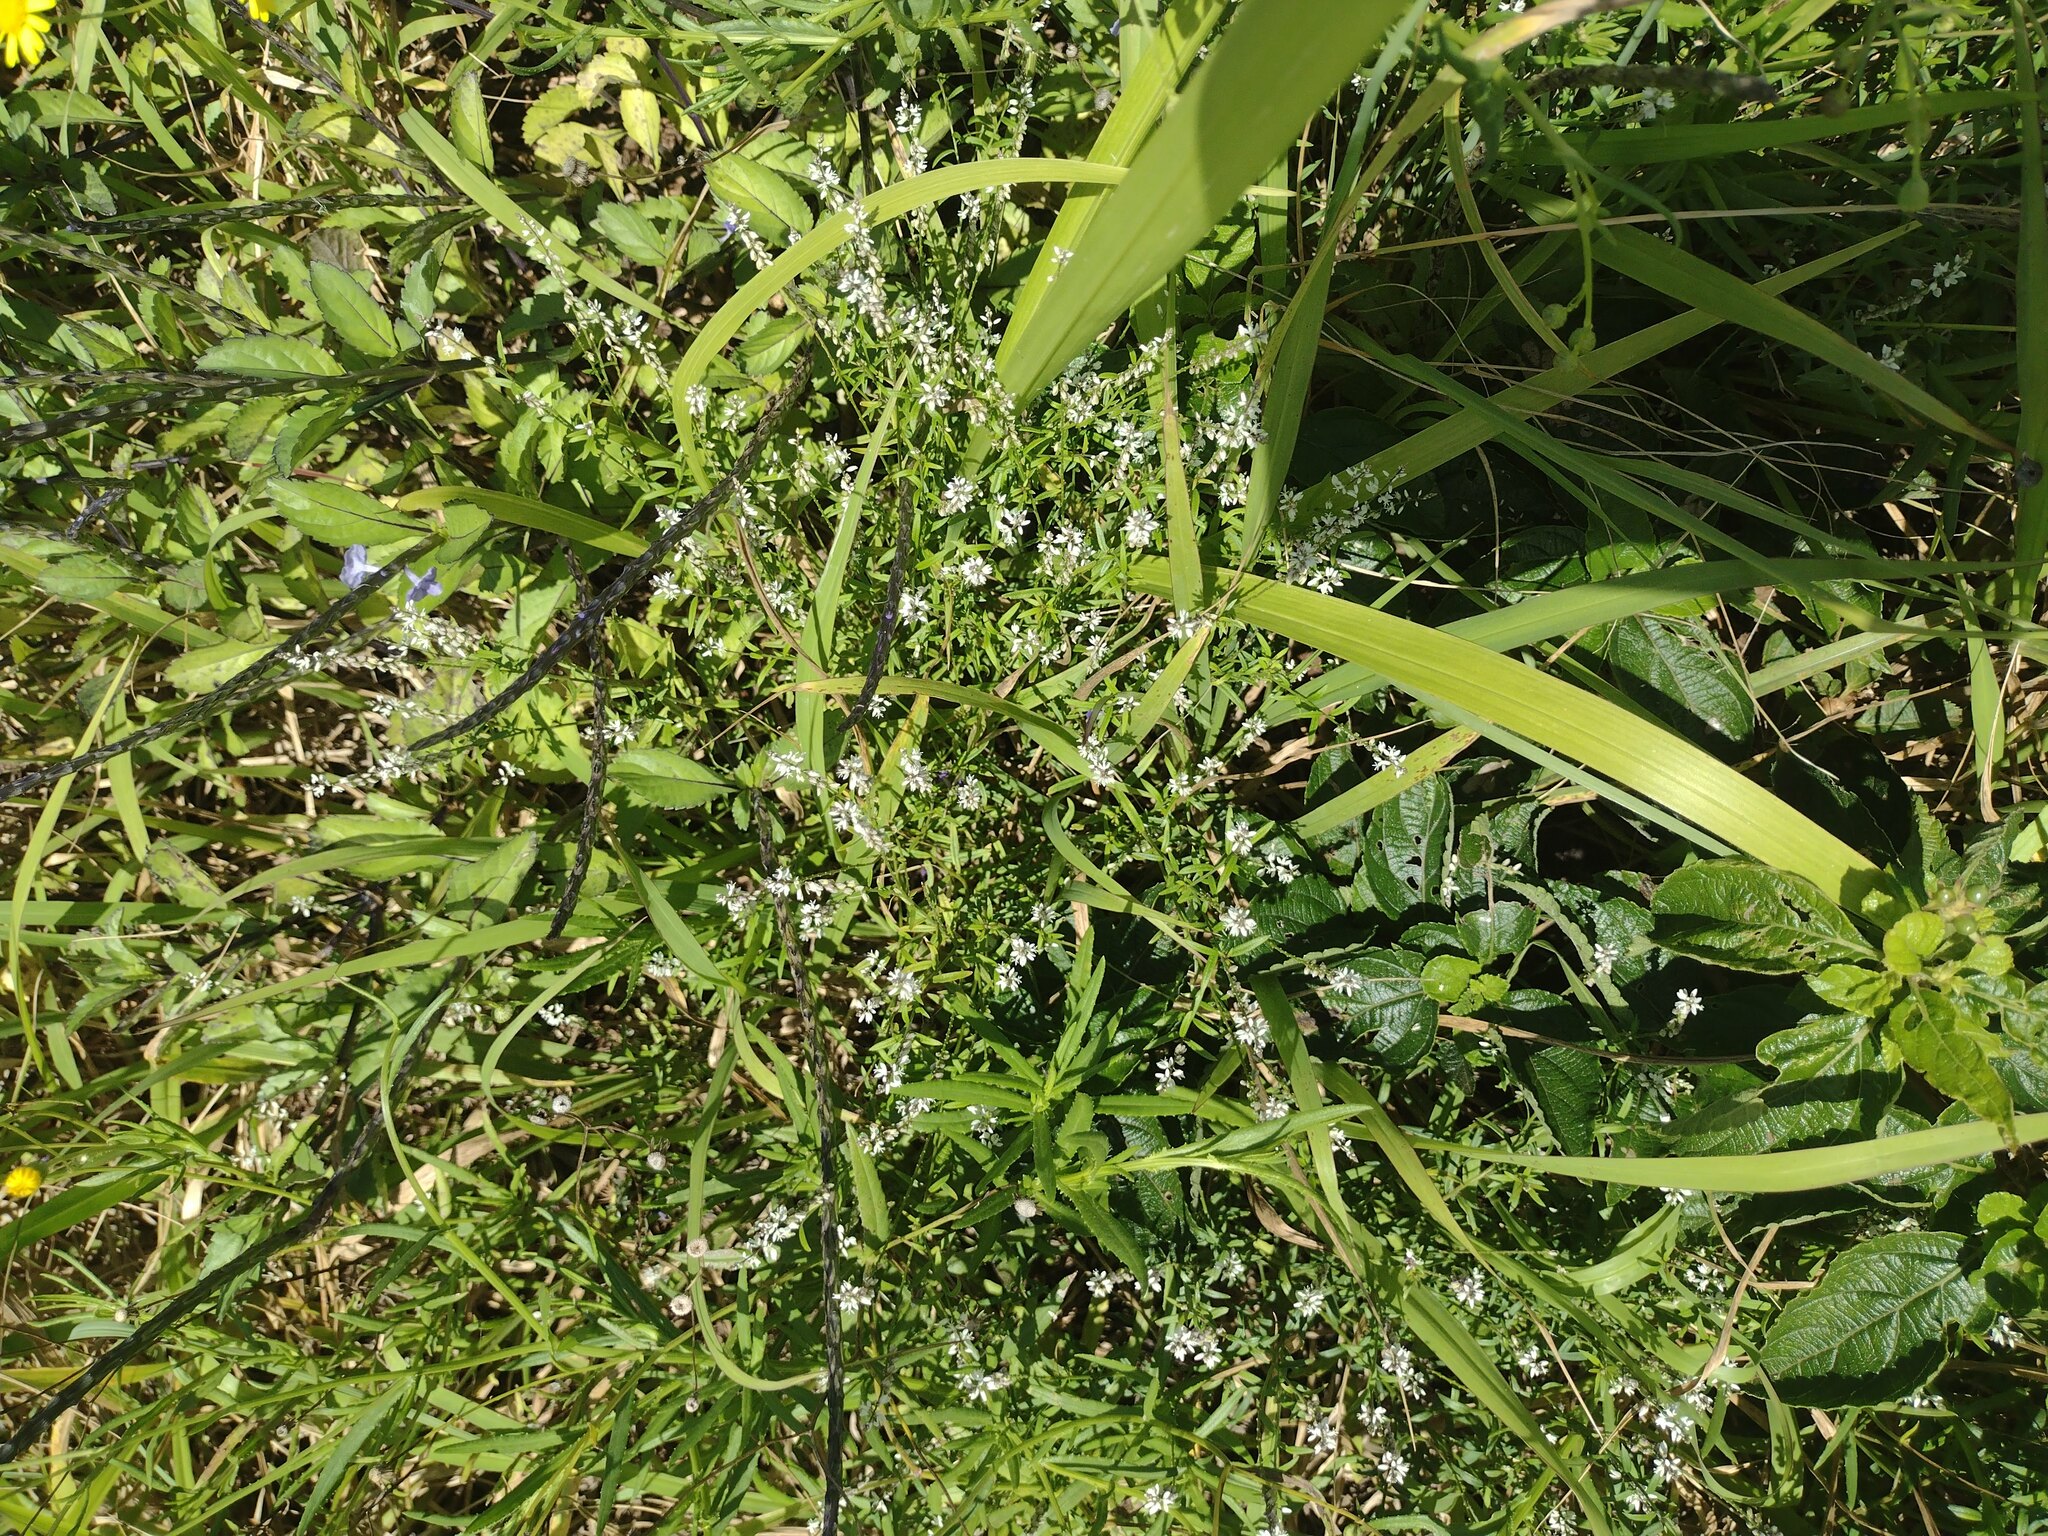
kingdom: Plantae
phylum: Tracheophyta
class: Magnoliopsida
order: Fabales
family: Polygalaceae
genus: Polygala
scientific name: Polygala paniculata
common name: Orosne
